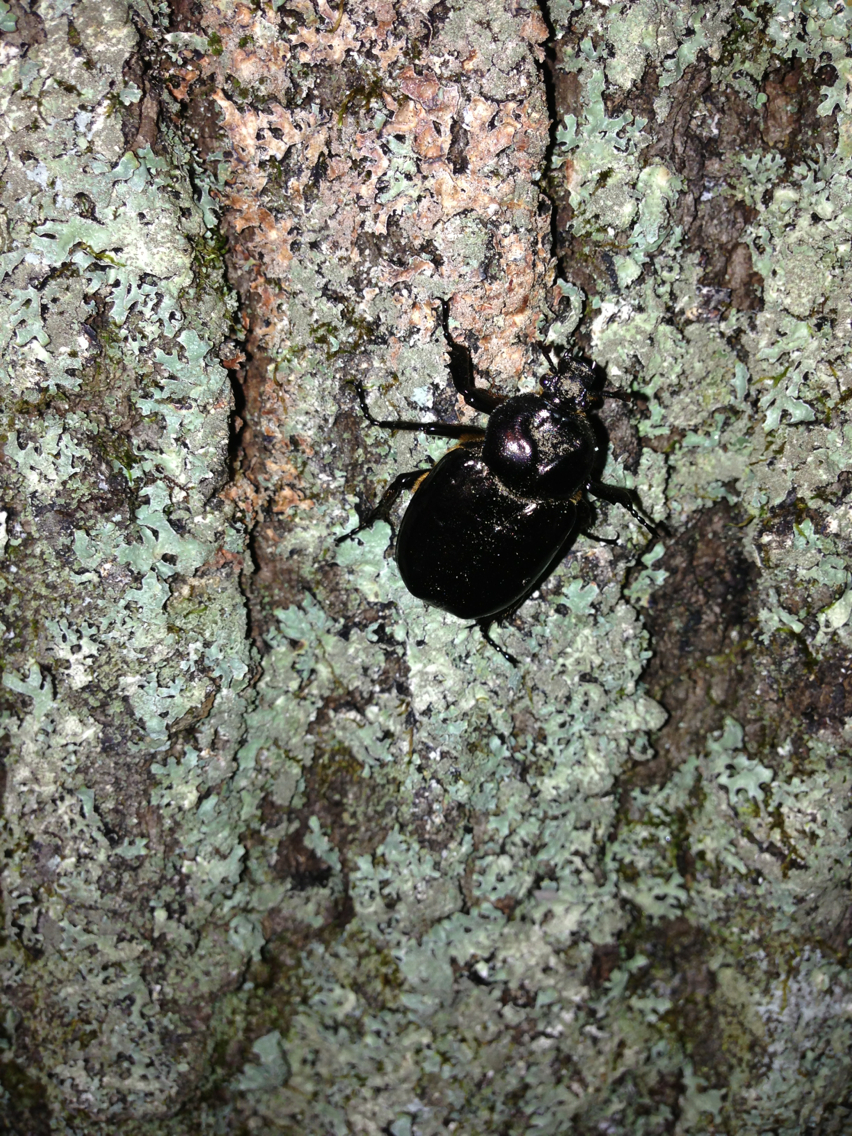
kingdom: Animalia
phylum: Arthropoda
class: Insecta
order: Coleoptera
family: Scarabaeidae
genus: Osmoderma
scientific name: Osmoderma eremicola
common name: Hermit flower beetle
